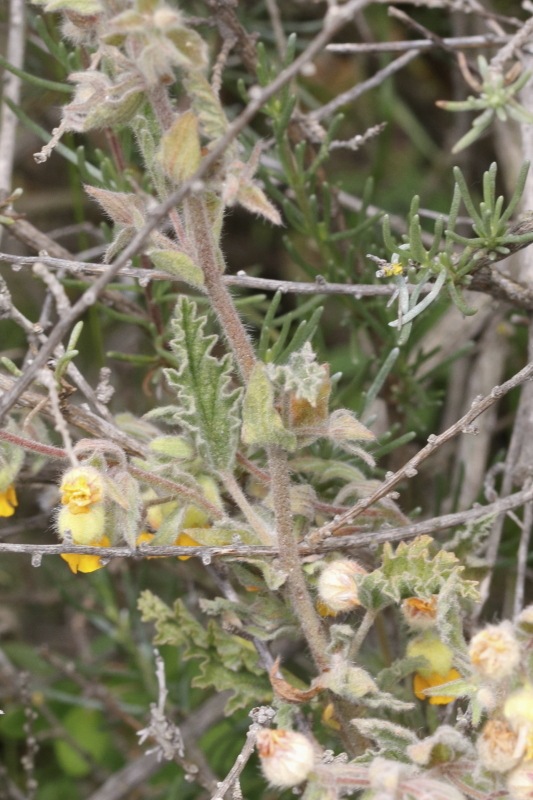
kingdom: Plantae
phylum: Tracheophyta
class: Magnoliopsida
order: Malvales
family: Malvaceae
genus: Hermannia
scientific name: Hermannia althaeifolia
